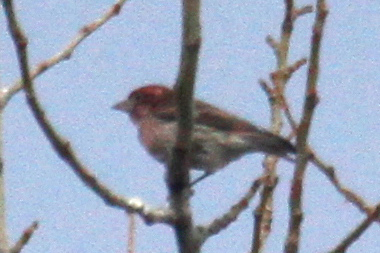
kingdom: Animalia
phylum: Chordata
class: Aves
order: Passeriformes
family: Fringillidae
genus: Haemorhous
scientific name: Haemorhous cassinii
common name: Cassin's finch
